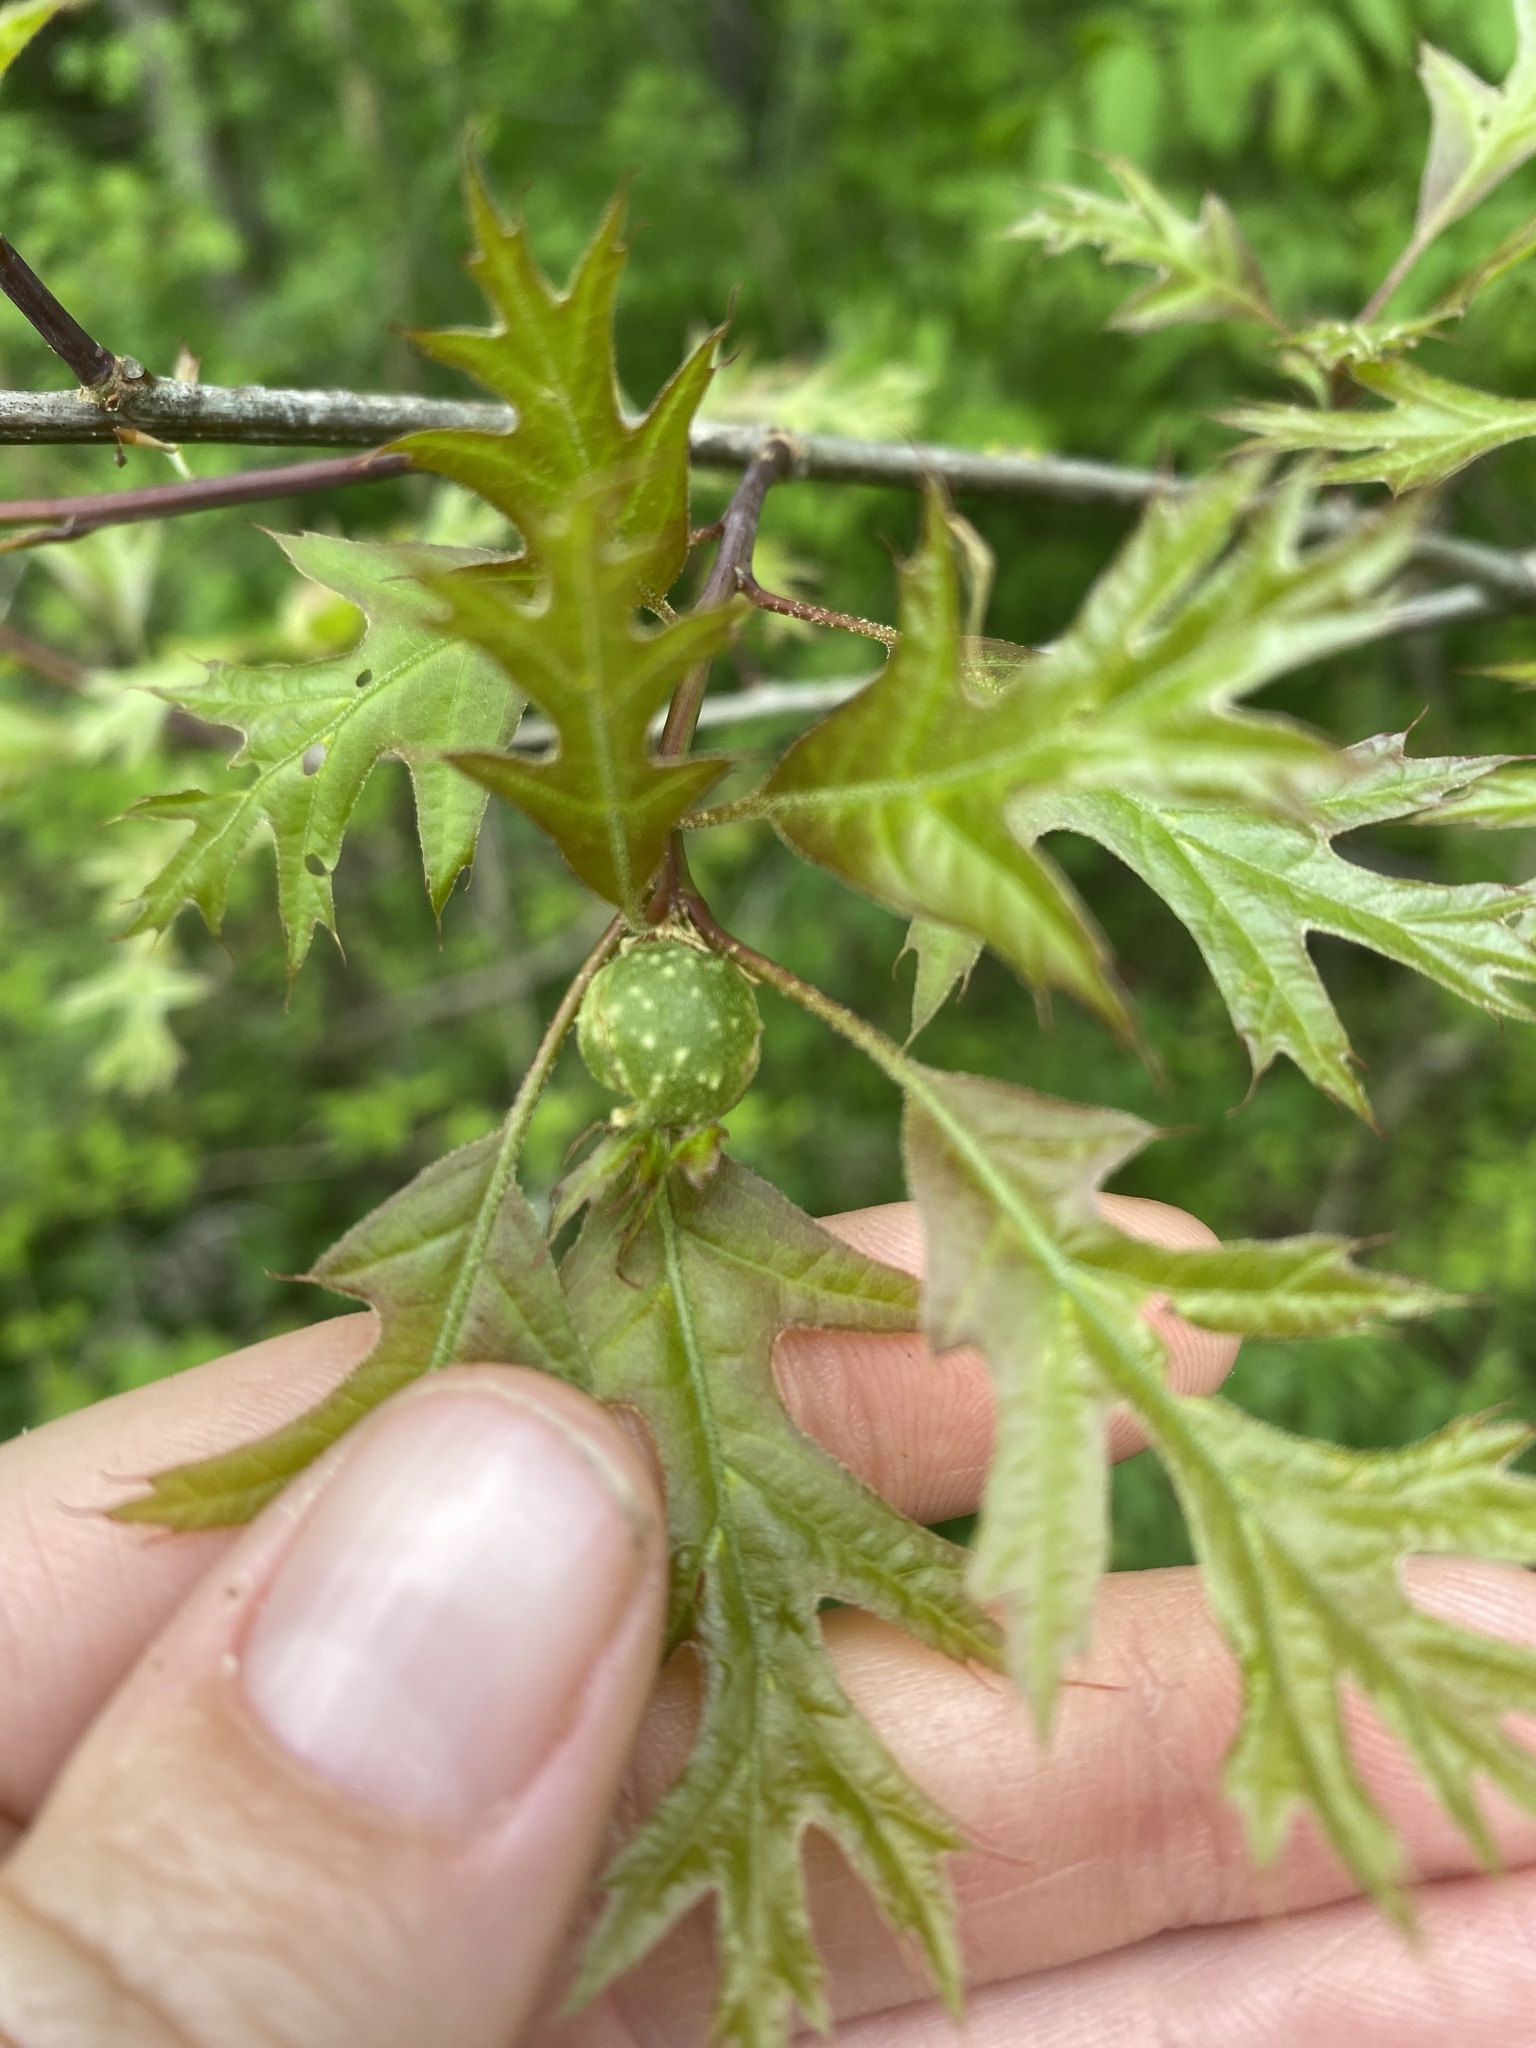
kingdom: Animalia
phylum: Arthropoda
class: Insecta
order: Hymenoptera
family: Cynipidae
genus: Dryocosmus
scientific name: Dryocosmus quercuspalustris
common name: Succulent oak gall wasp
